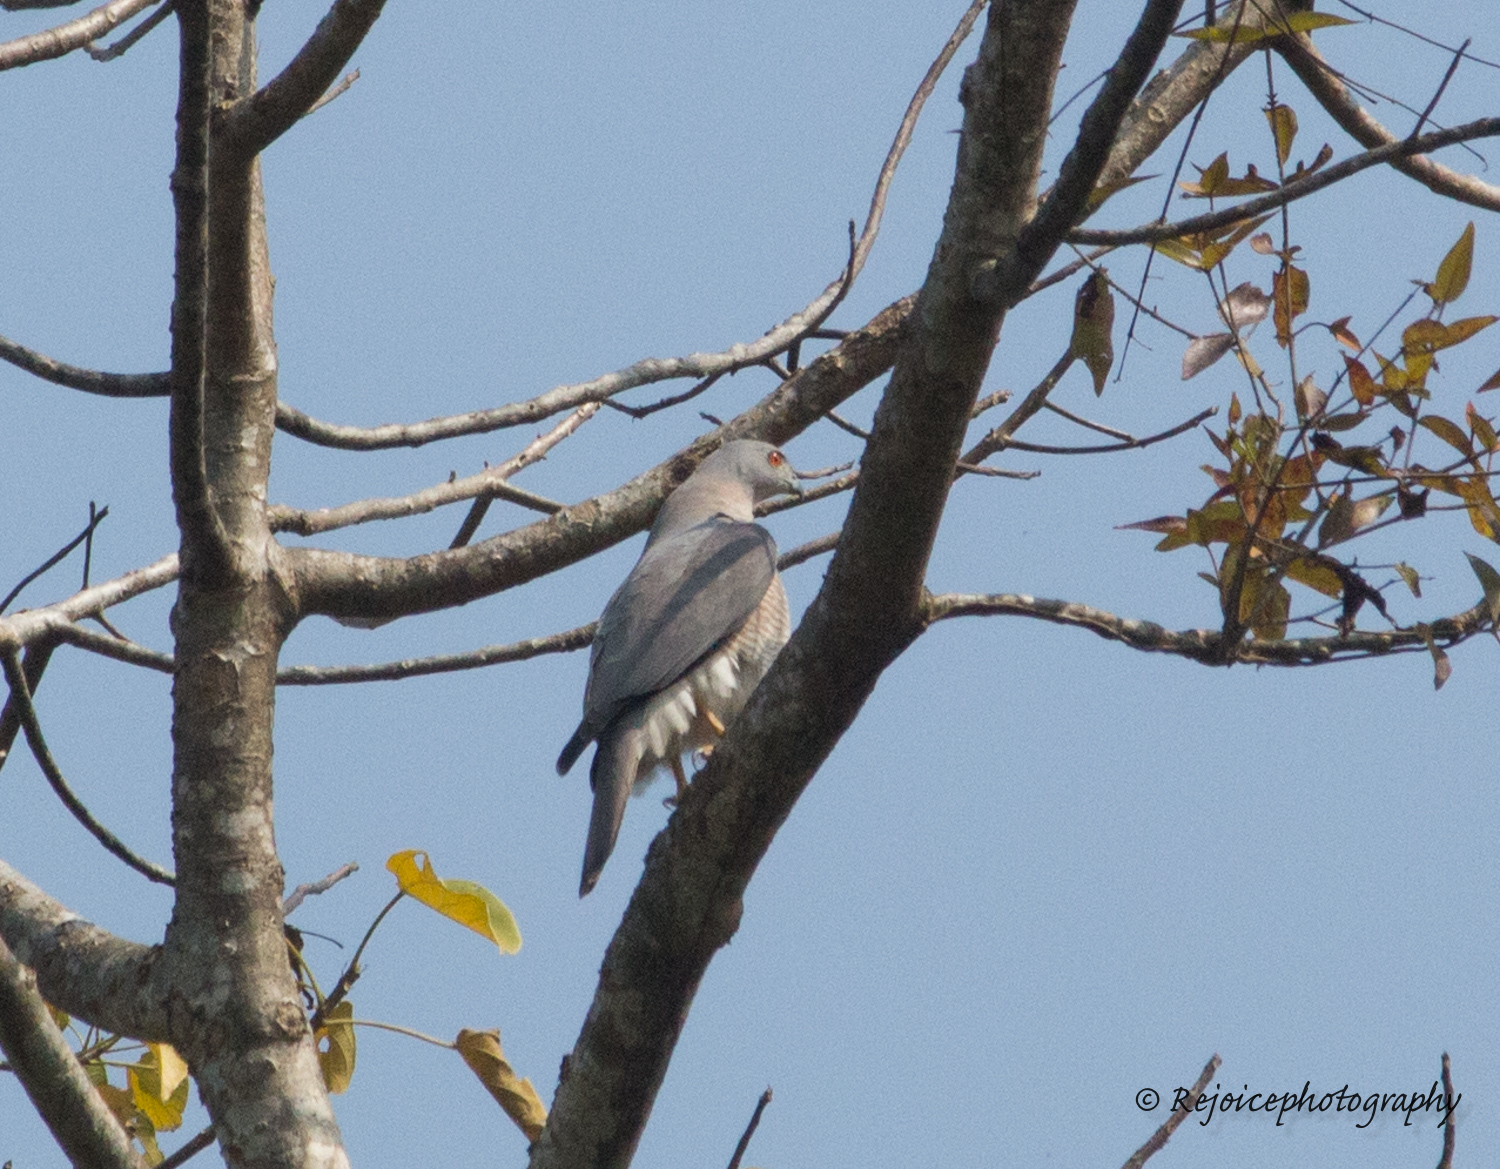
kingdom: Animalia
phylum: Chordata
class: Aves
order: Accipitriformes
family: Accipitridae
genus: Accipiter
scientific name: Accipiter badius
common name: Shikra
